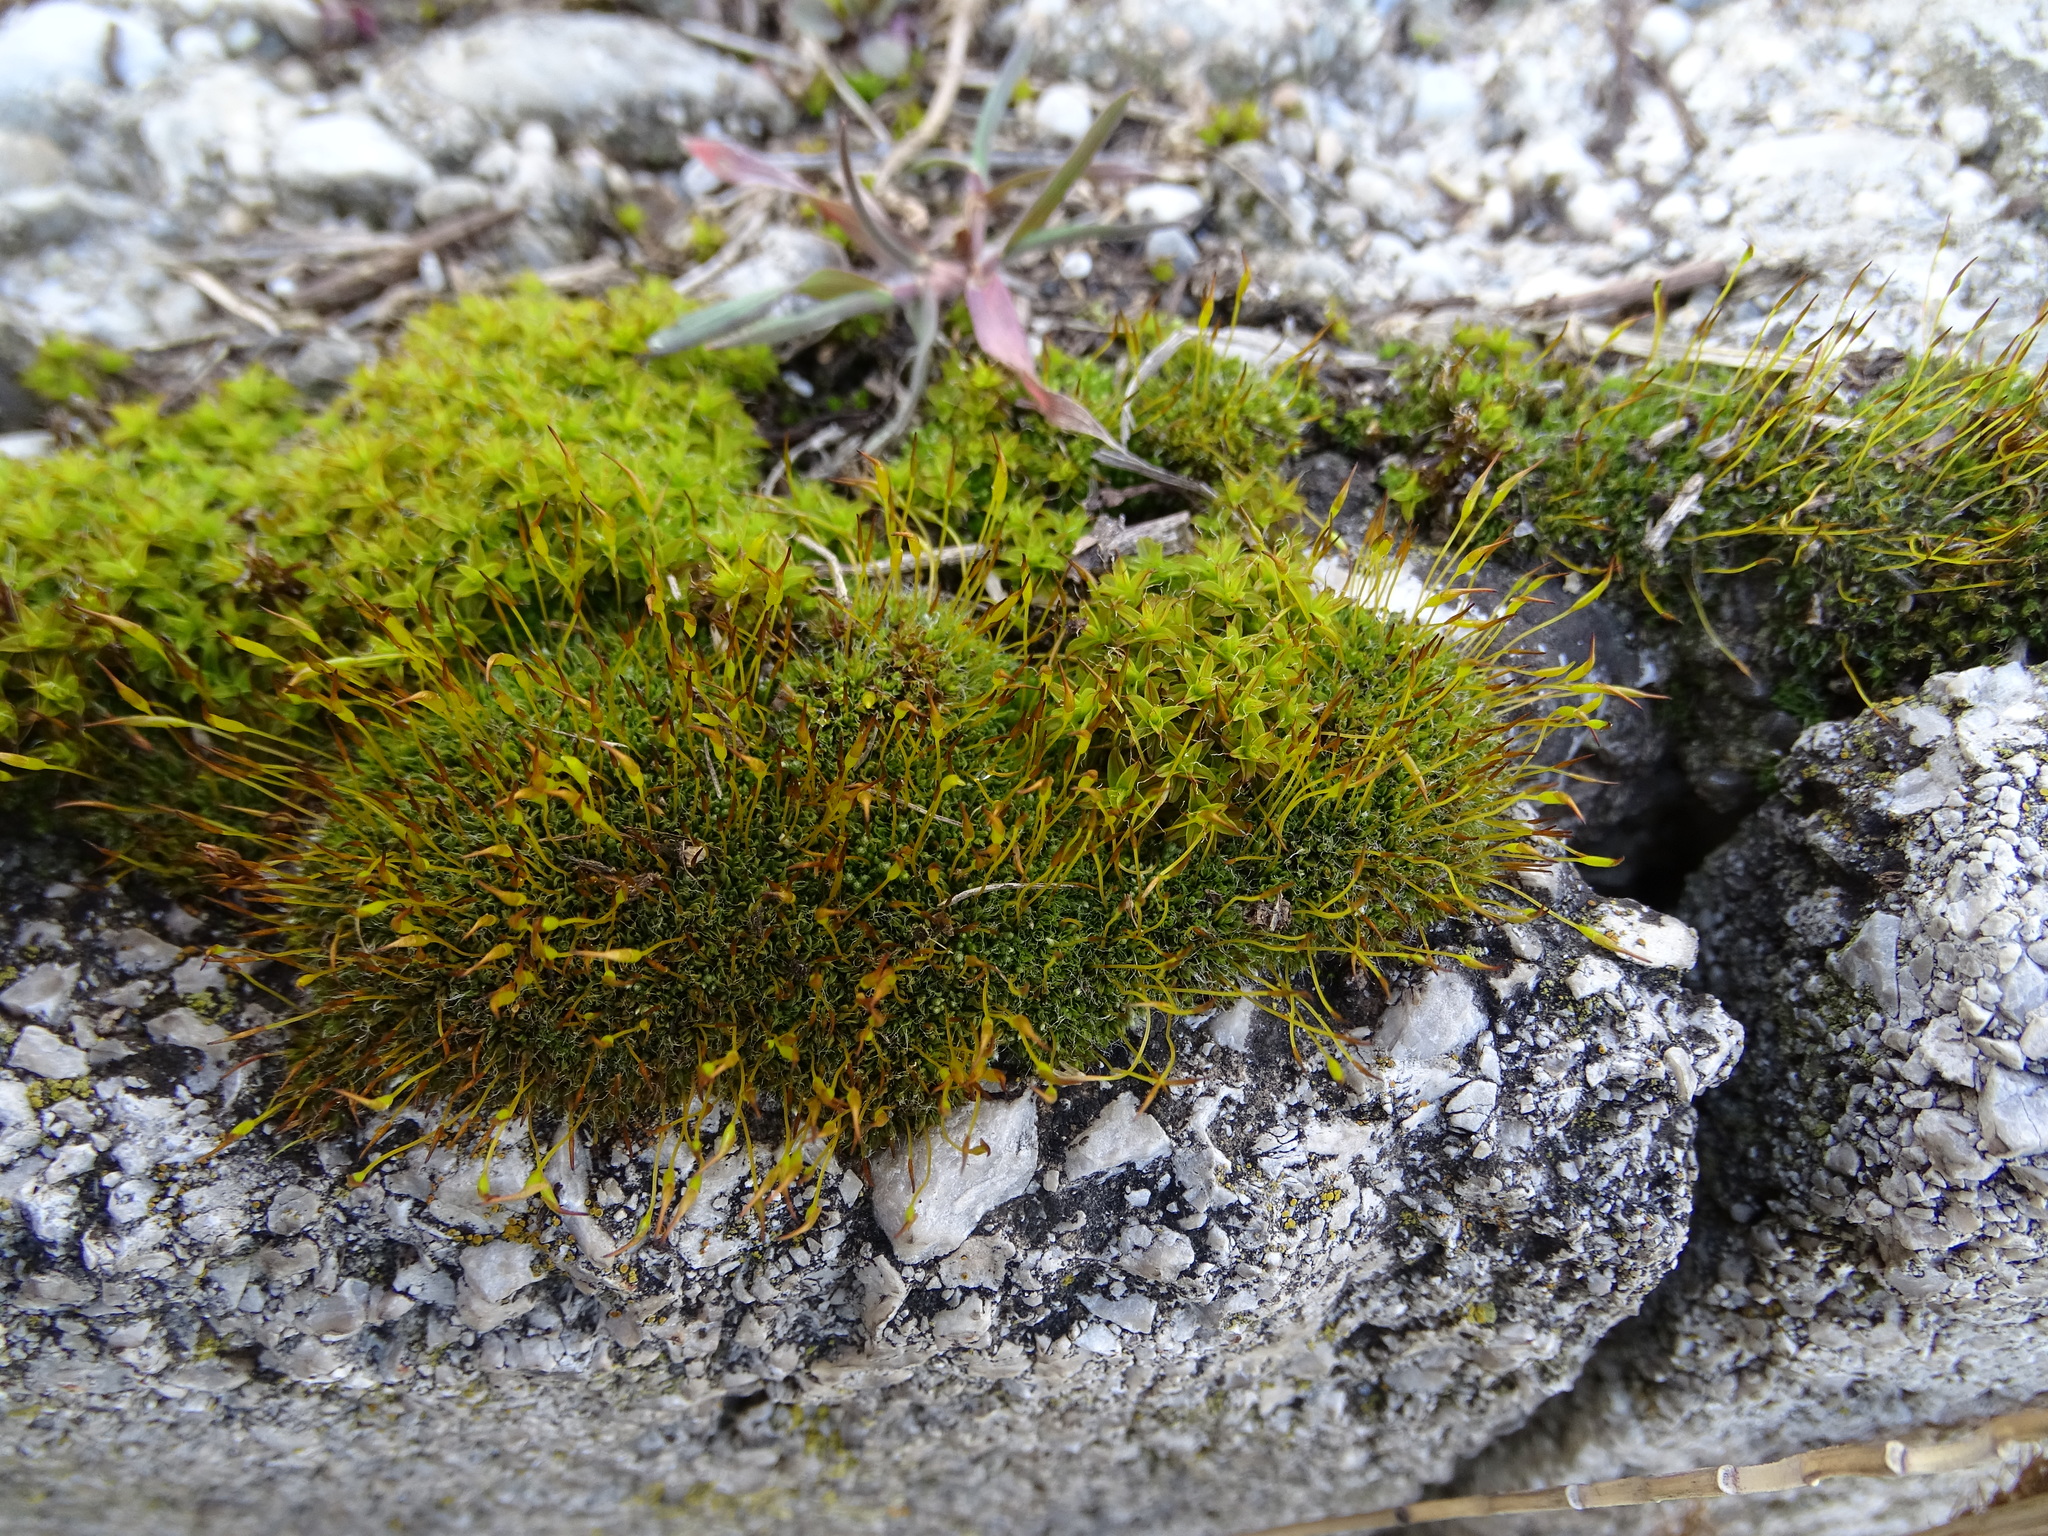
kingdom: Plantae
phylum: Bryophyta
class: Bryopsida
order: Pottiales
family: Pottiaceae
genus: Tortula
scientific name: Tortula muralis
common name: Wall screw-moss
